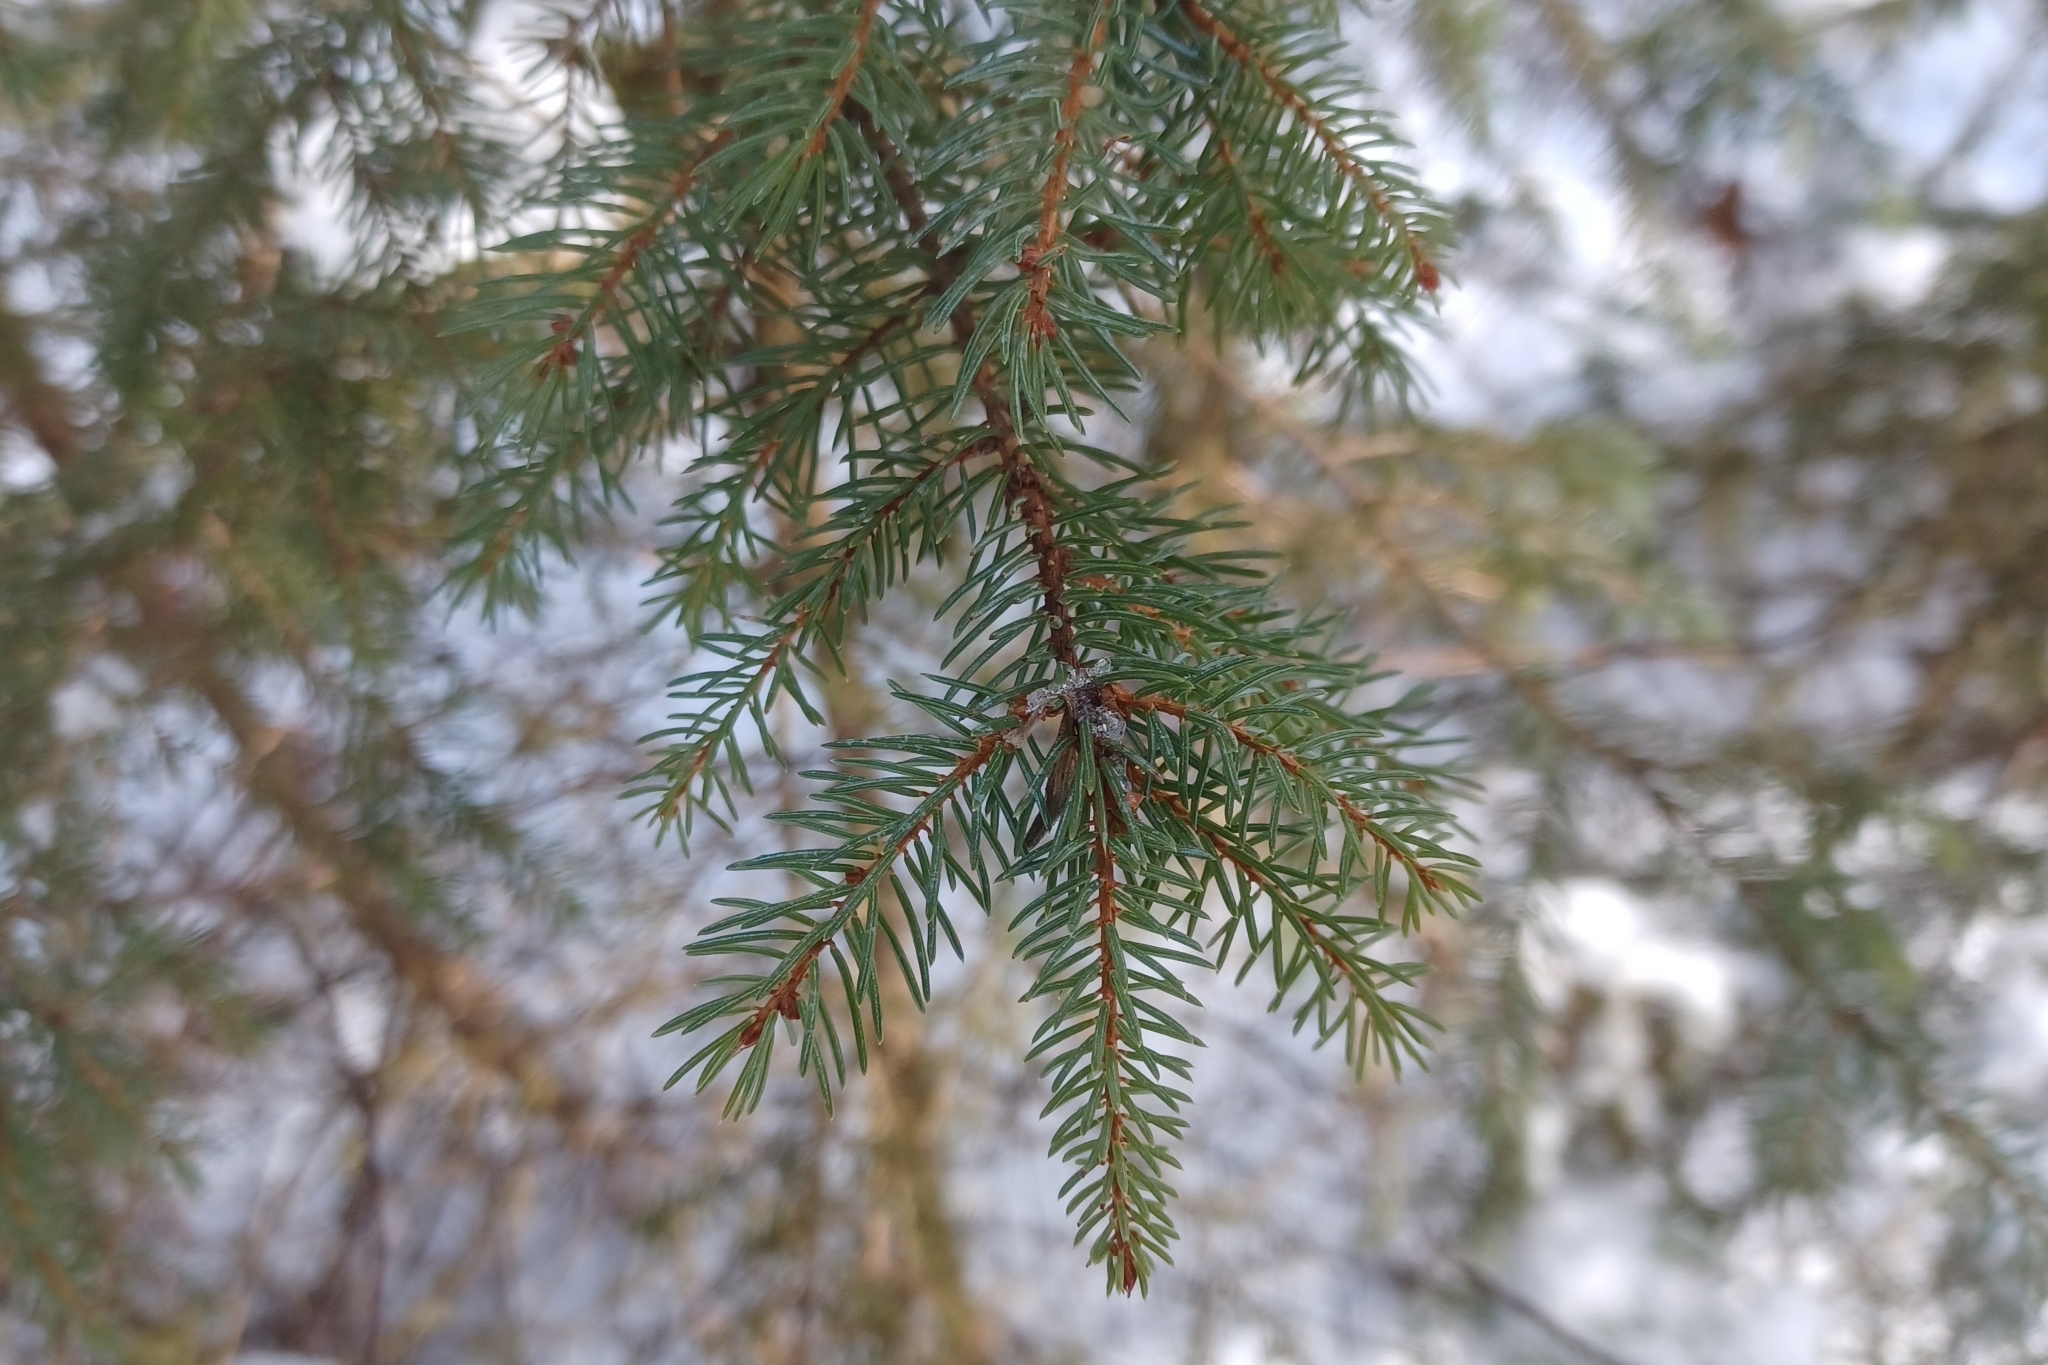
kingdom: Plantae
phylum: Tracheophyta
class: Pinopsida
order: Pinales
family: Pinaceae
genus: Picea
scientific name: Picea mariana
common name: Black spruce
